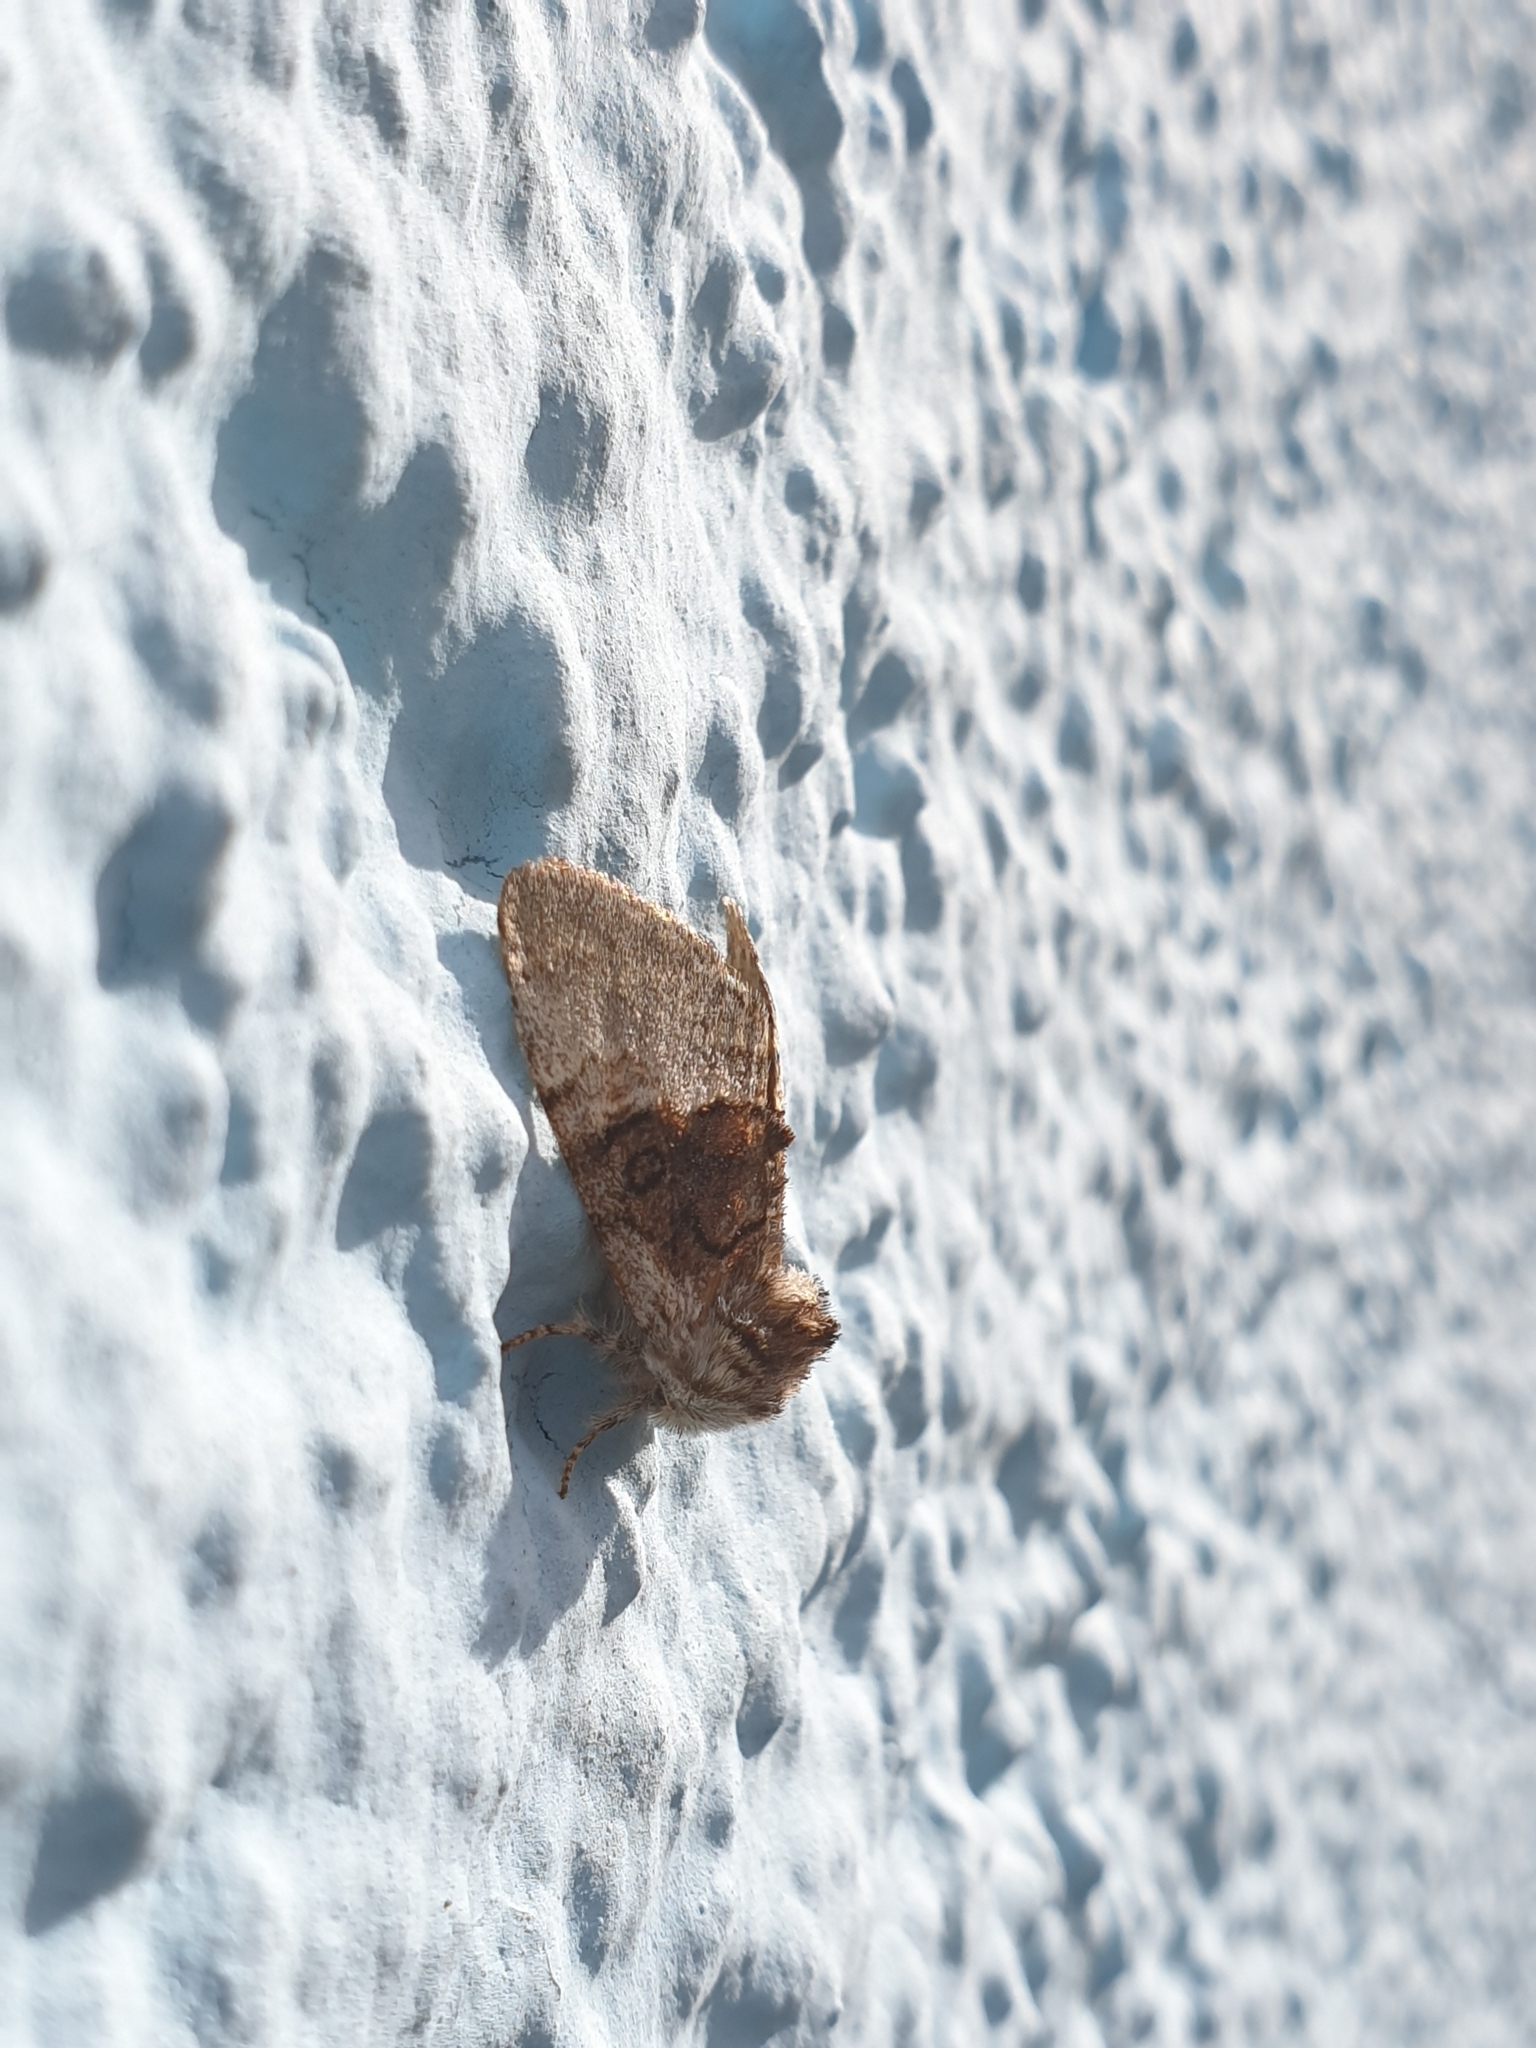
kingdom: Animalia
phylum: Arthropoda
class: Insecta
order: Lepidoptera
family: Noctuidae
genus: Colocasia
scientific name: Colocasia coryli
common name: Nut-tree tussock
